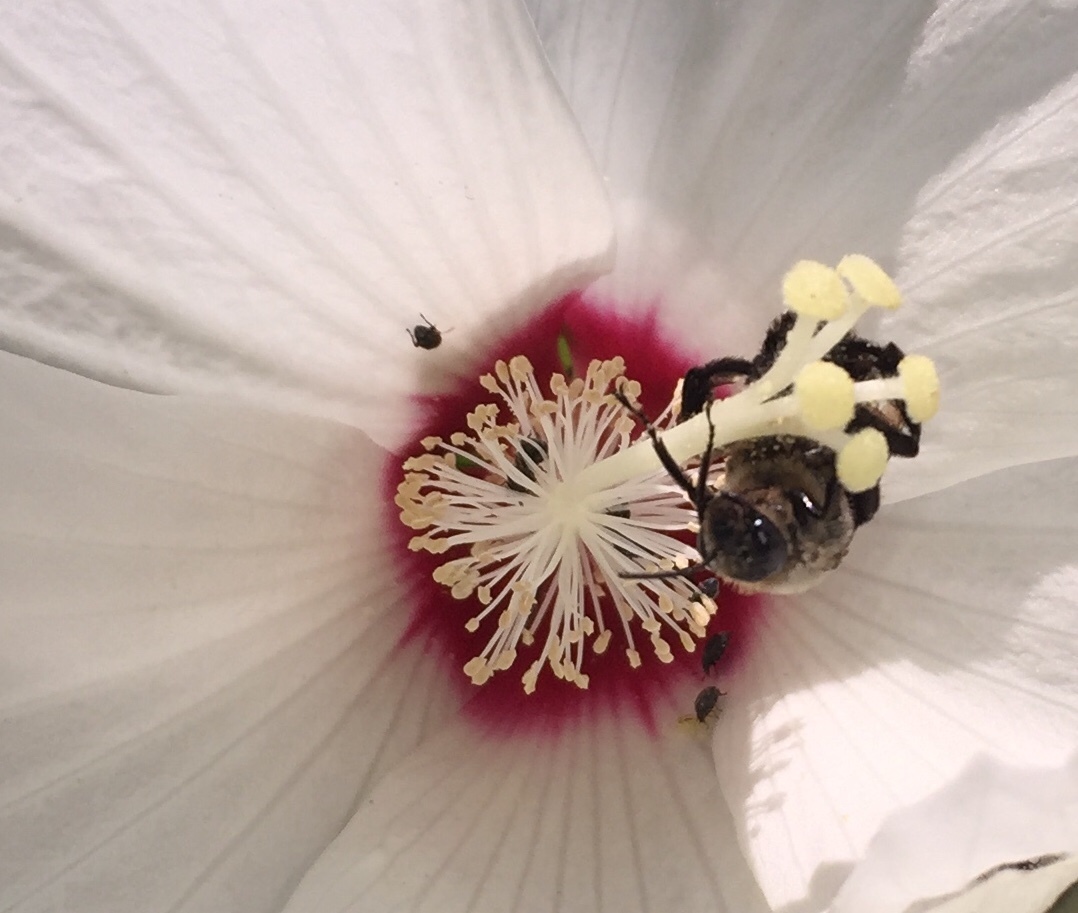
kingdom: Animalia
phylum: Arthropoda
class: Insecta
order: Hymenoptera
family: Apidae
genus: Ptilothrix
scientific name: Ptilothrix bombiformis
